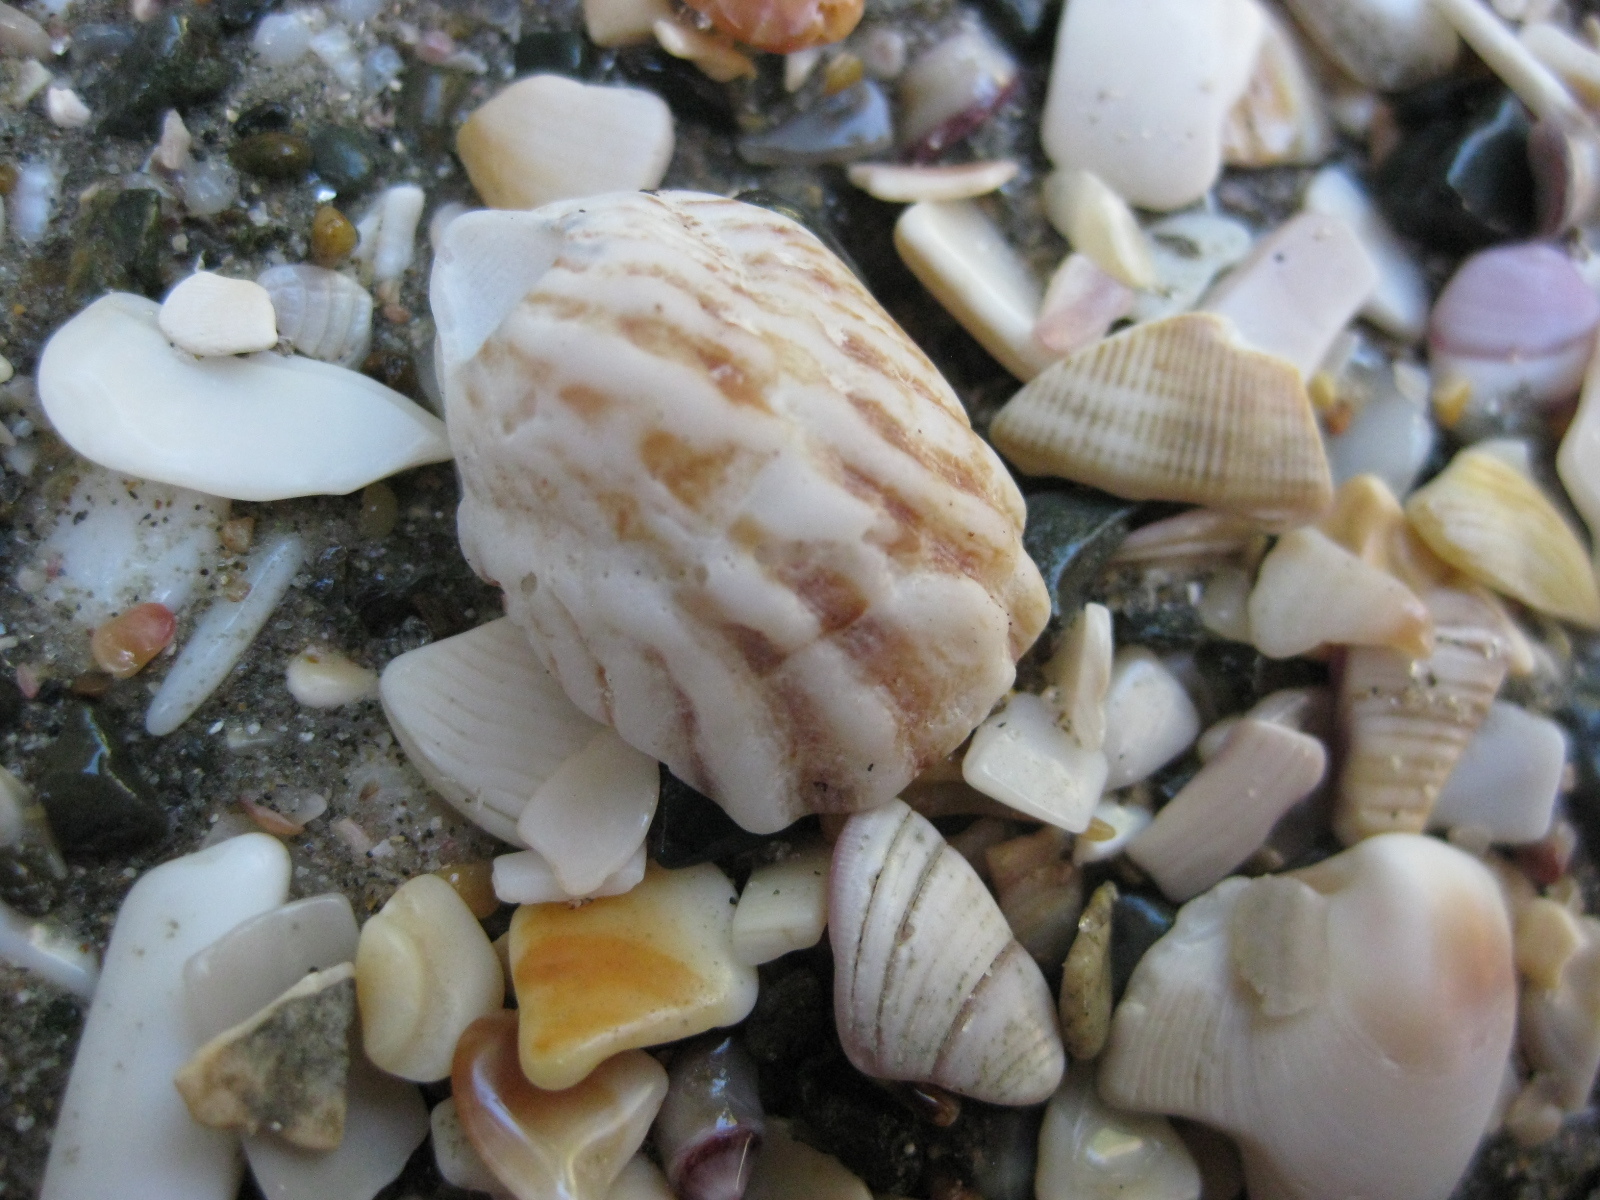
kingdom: Animalia
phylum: Mollusca
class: Gastropoda
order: Littorinimorpha
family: Calyptraeidae
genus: Maoricrypta
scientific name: Maoricrypta costata
